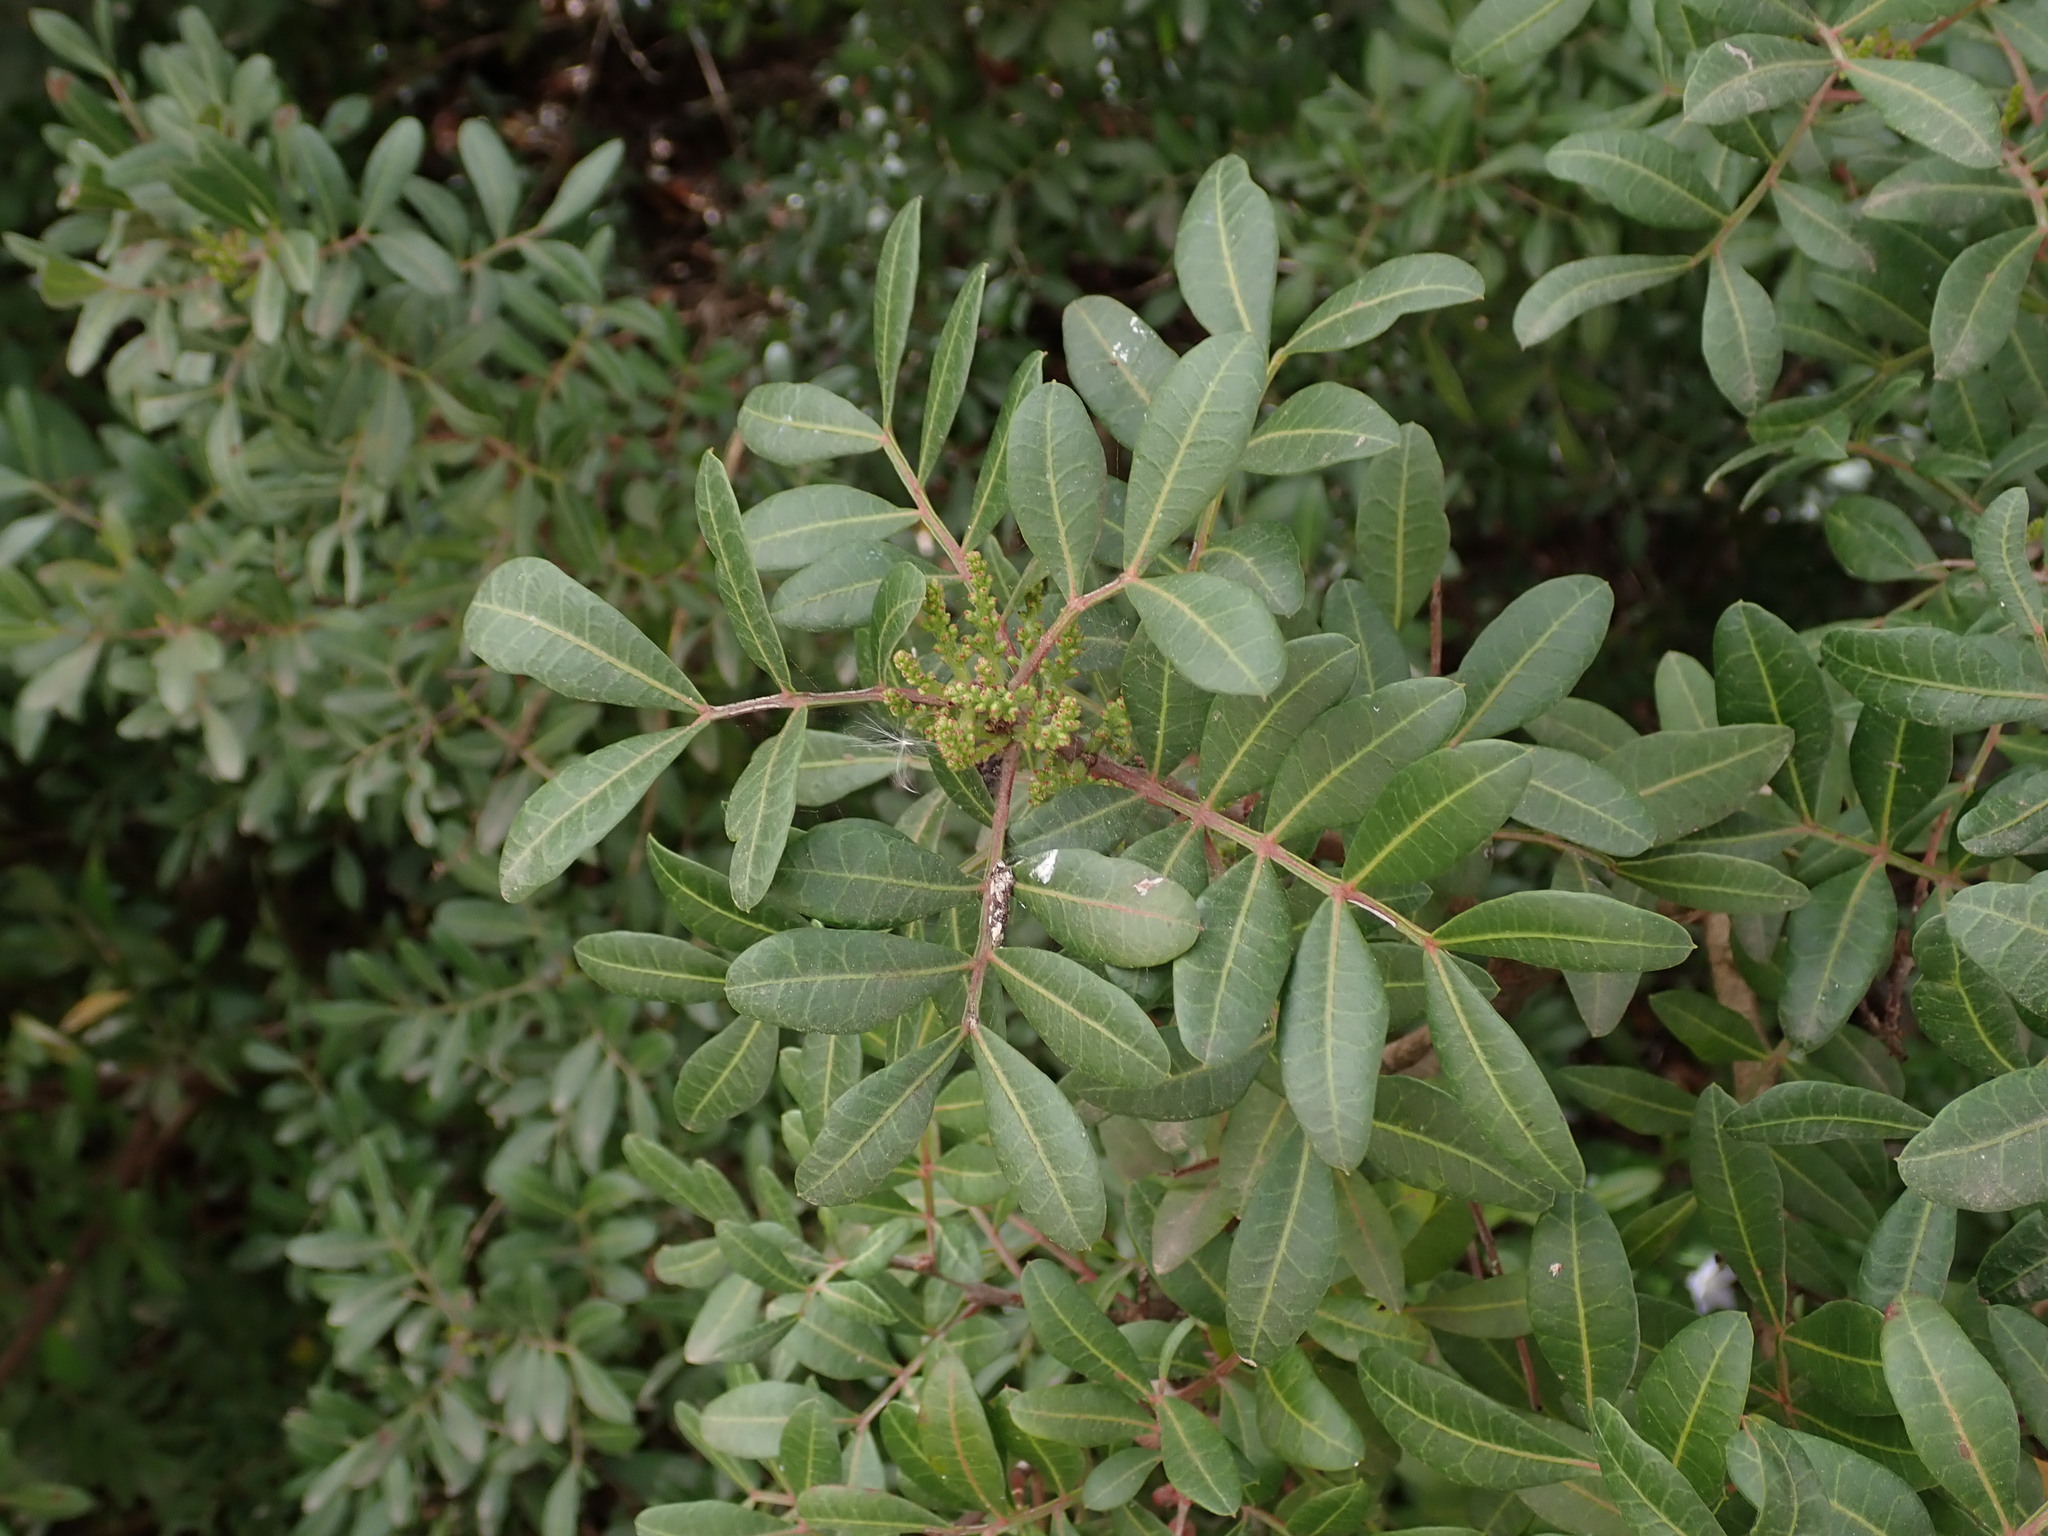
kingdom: Plantae
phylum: Tracheophyta
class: Magnoliopsida
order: Sapindales
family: Anacardiaceae
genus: Pistacia
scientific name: Pistacia lentiscus
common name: Lentisk
